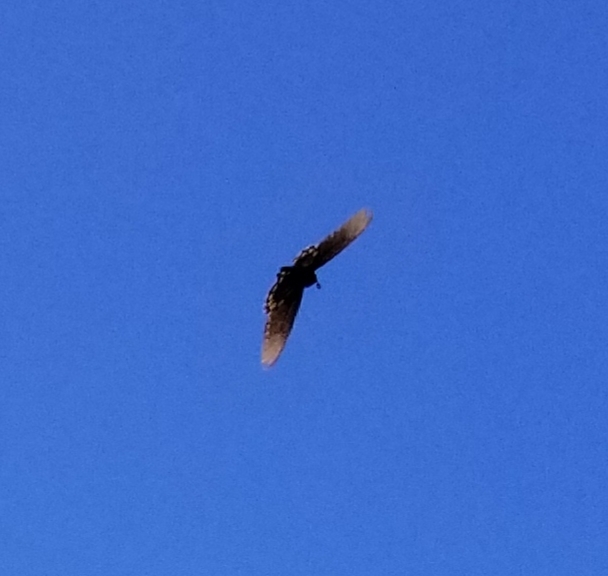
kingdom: Animalia
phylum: Arthropoda
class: Insecta
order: Lepidoptera
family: Papilionidae
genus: Battus
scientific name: Battus philenor
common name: Pipevine swallowtail
